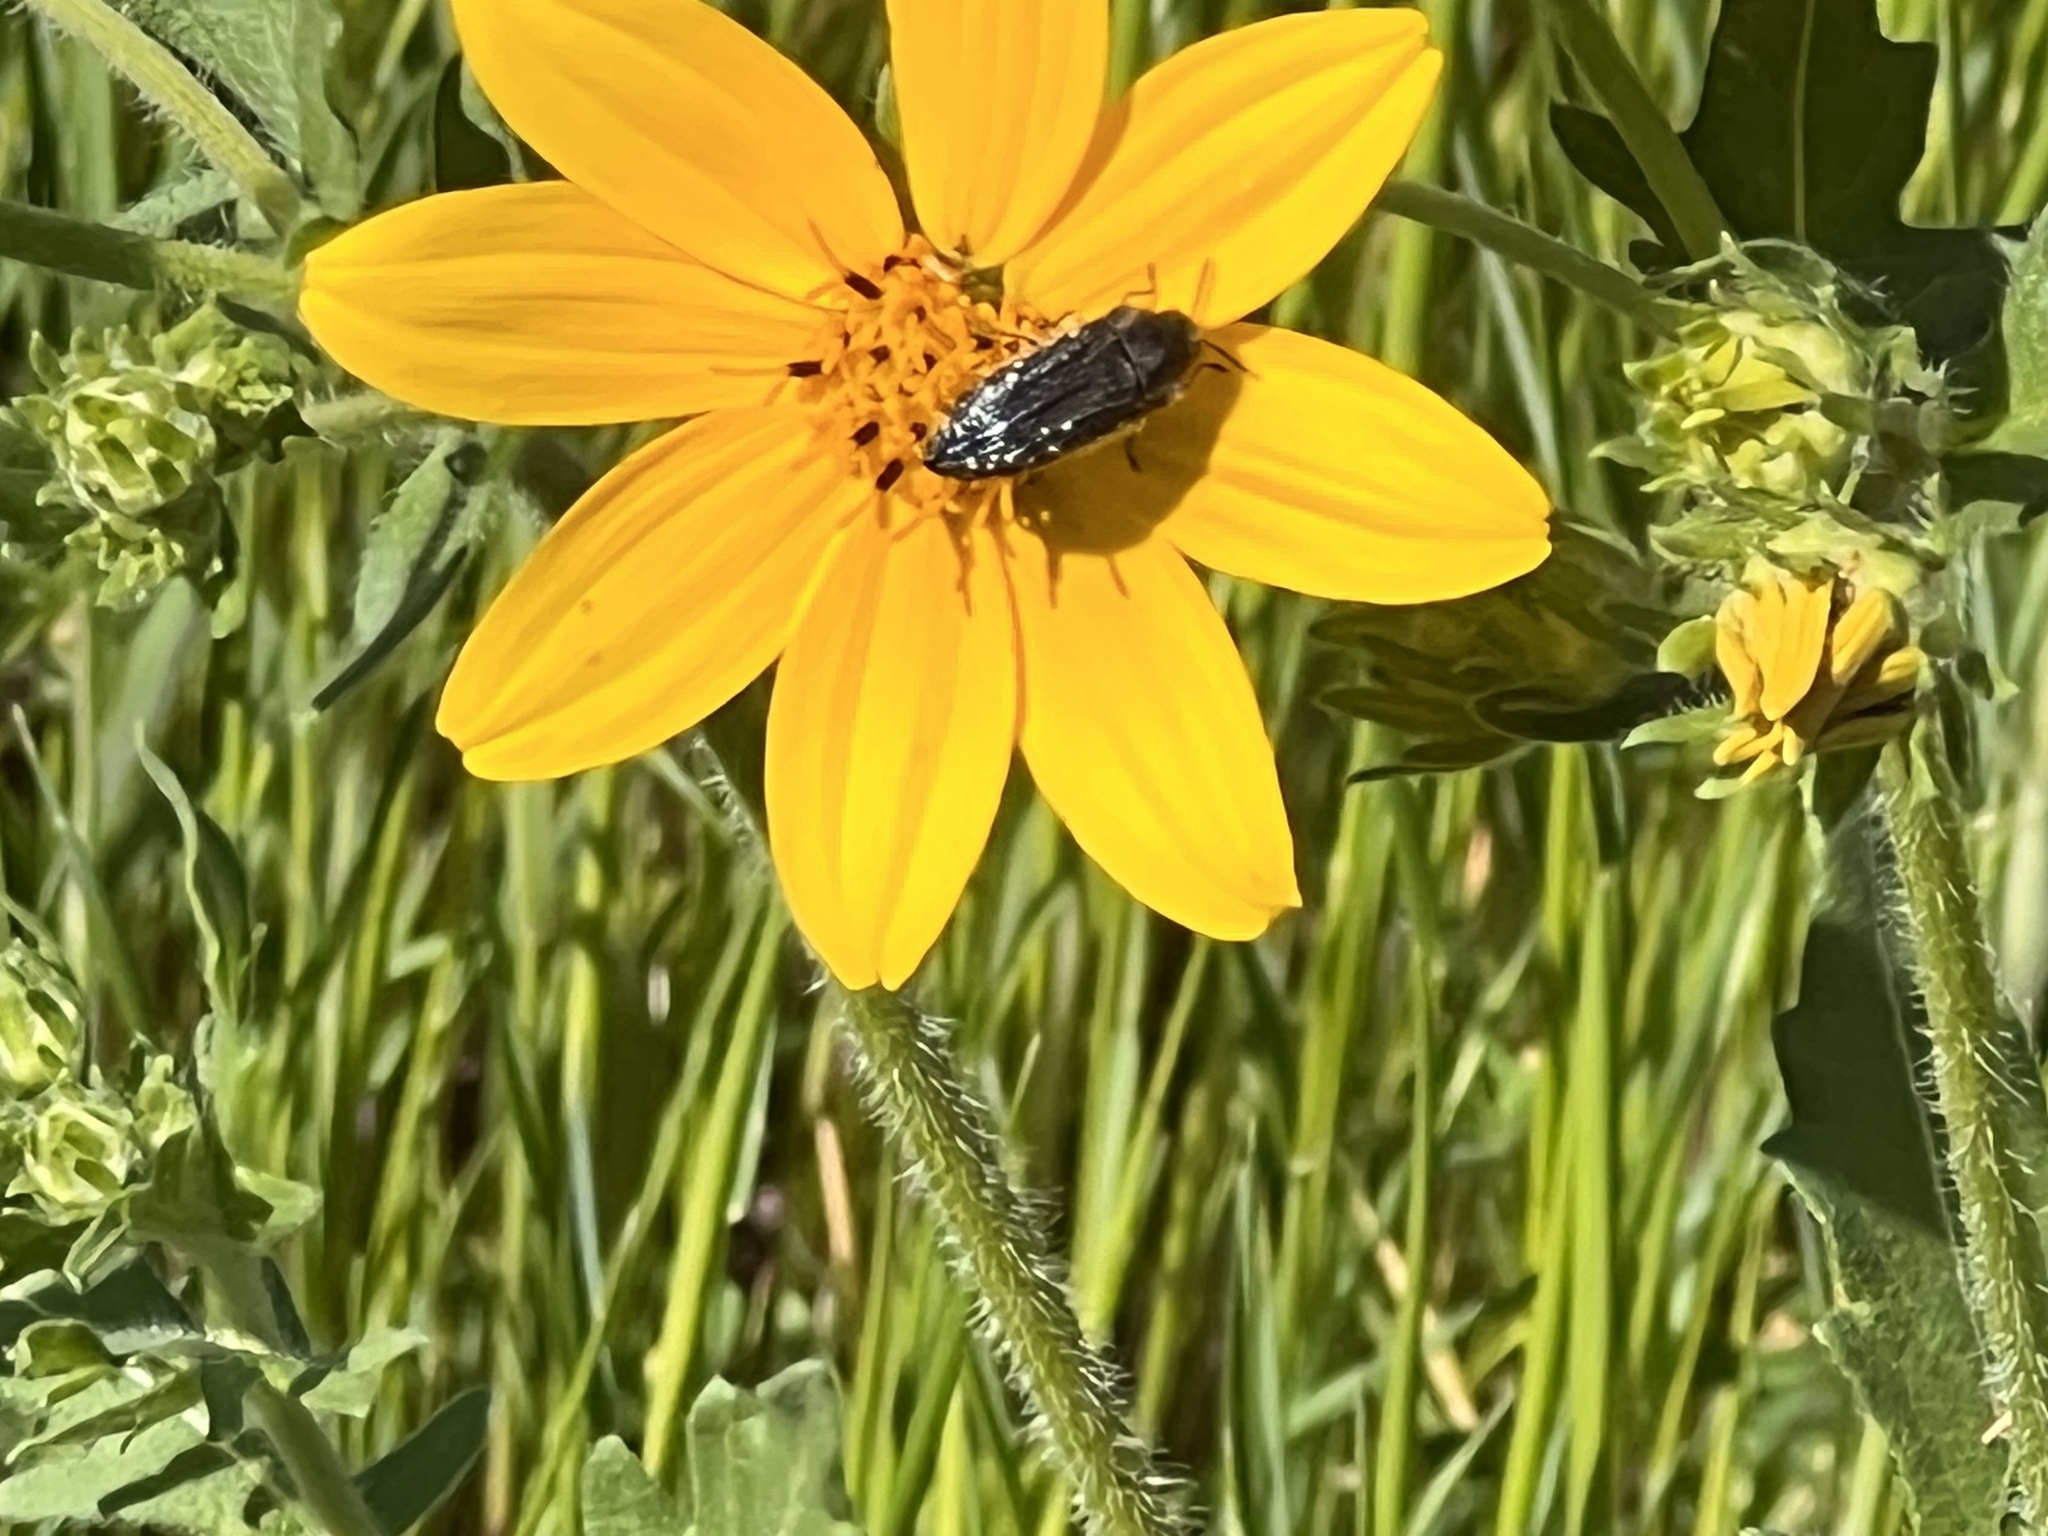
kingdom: Animalia
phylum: Arthropoda
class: Insecta
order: Coleoptera
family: Buprestidae
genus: Acmaeodera
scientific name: Acmaeodera ornatoides
